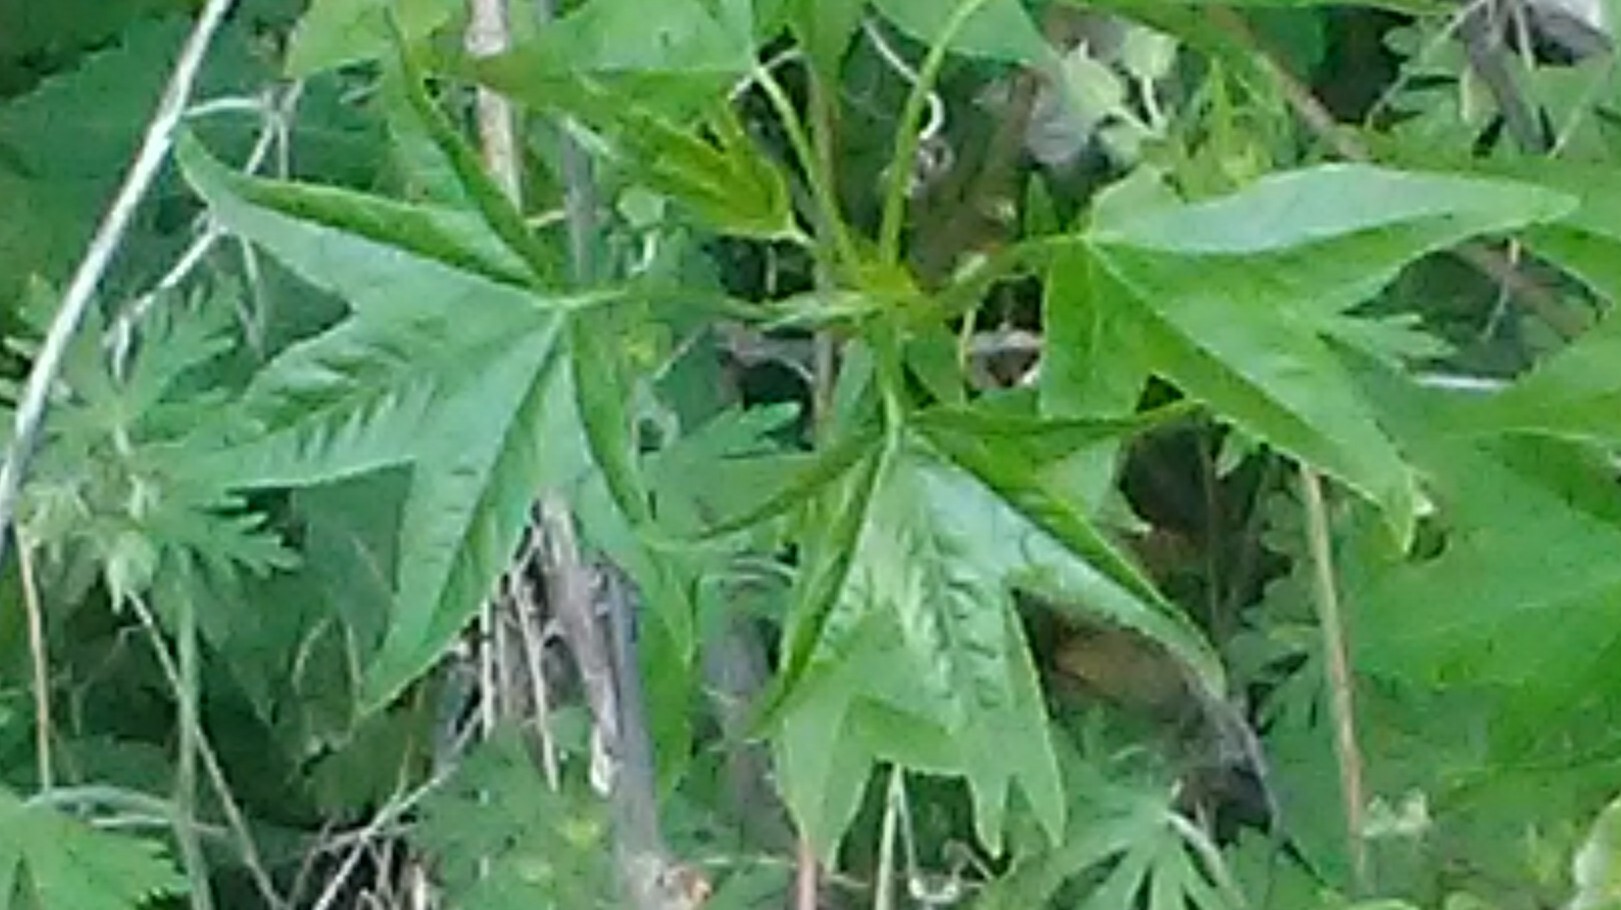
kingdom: Plantae
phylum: Tracheophyta
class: Magnoliopsida
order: Saxifragales
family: Altingiaceae
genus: Liquidambar
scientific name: Liquidambar styraciflua
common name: Sweet gum
